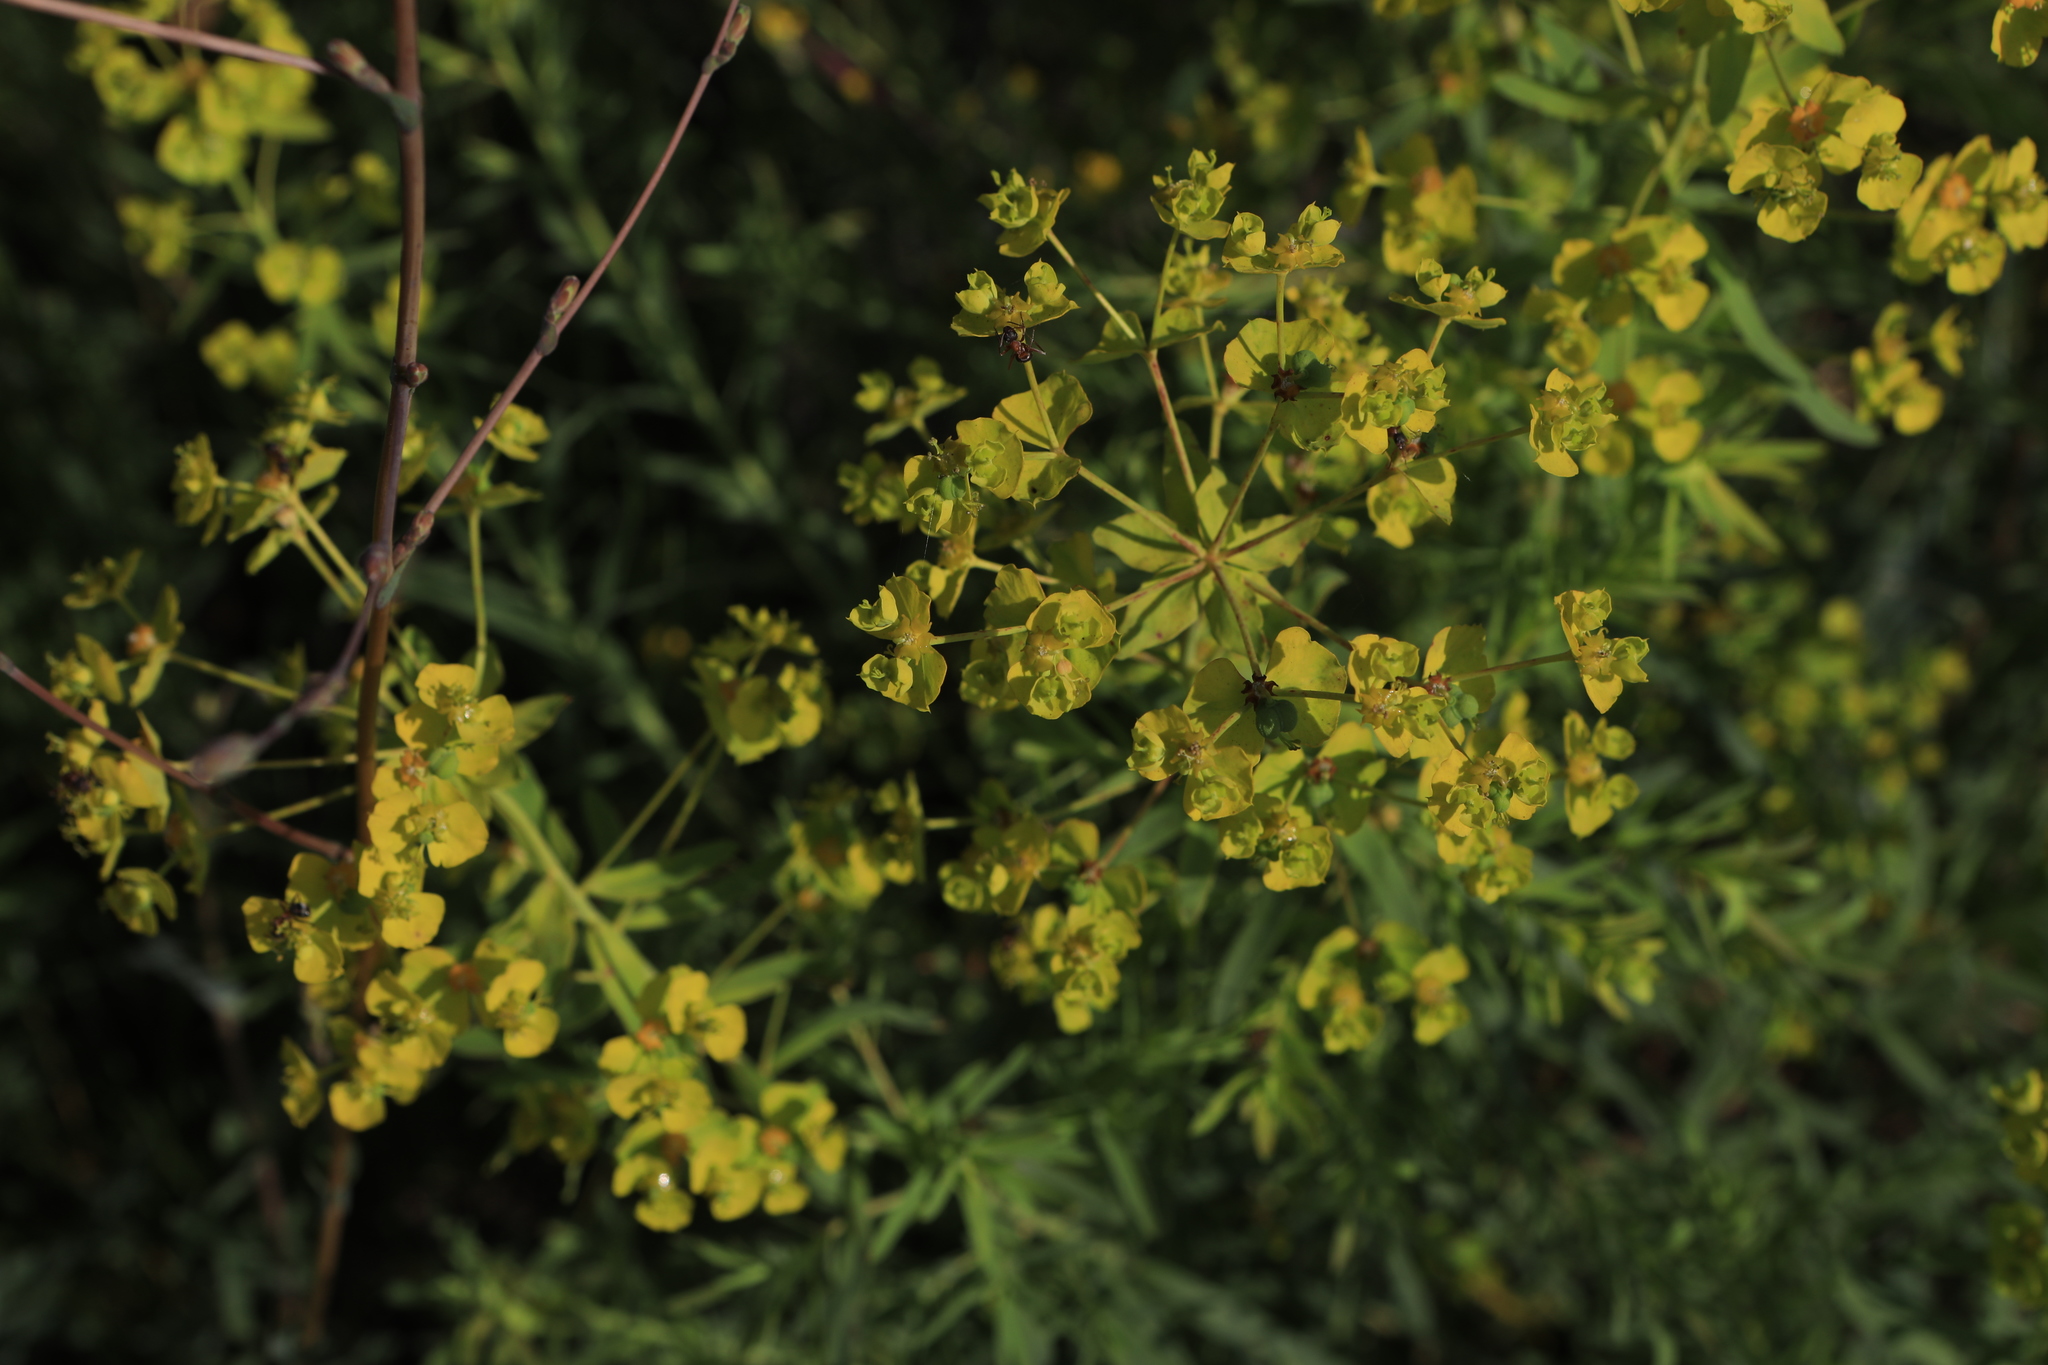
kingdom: Plantae
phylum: Tracheophyta
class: Magnoliopsida
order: Malpighiales
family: Euphorbiaceae
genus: Euphorbia
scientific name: Euphorbia virgata
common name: Leafy spurge
